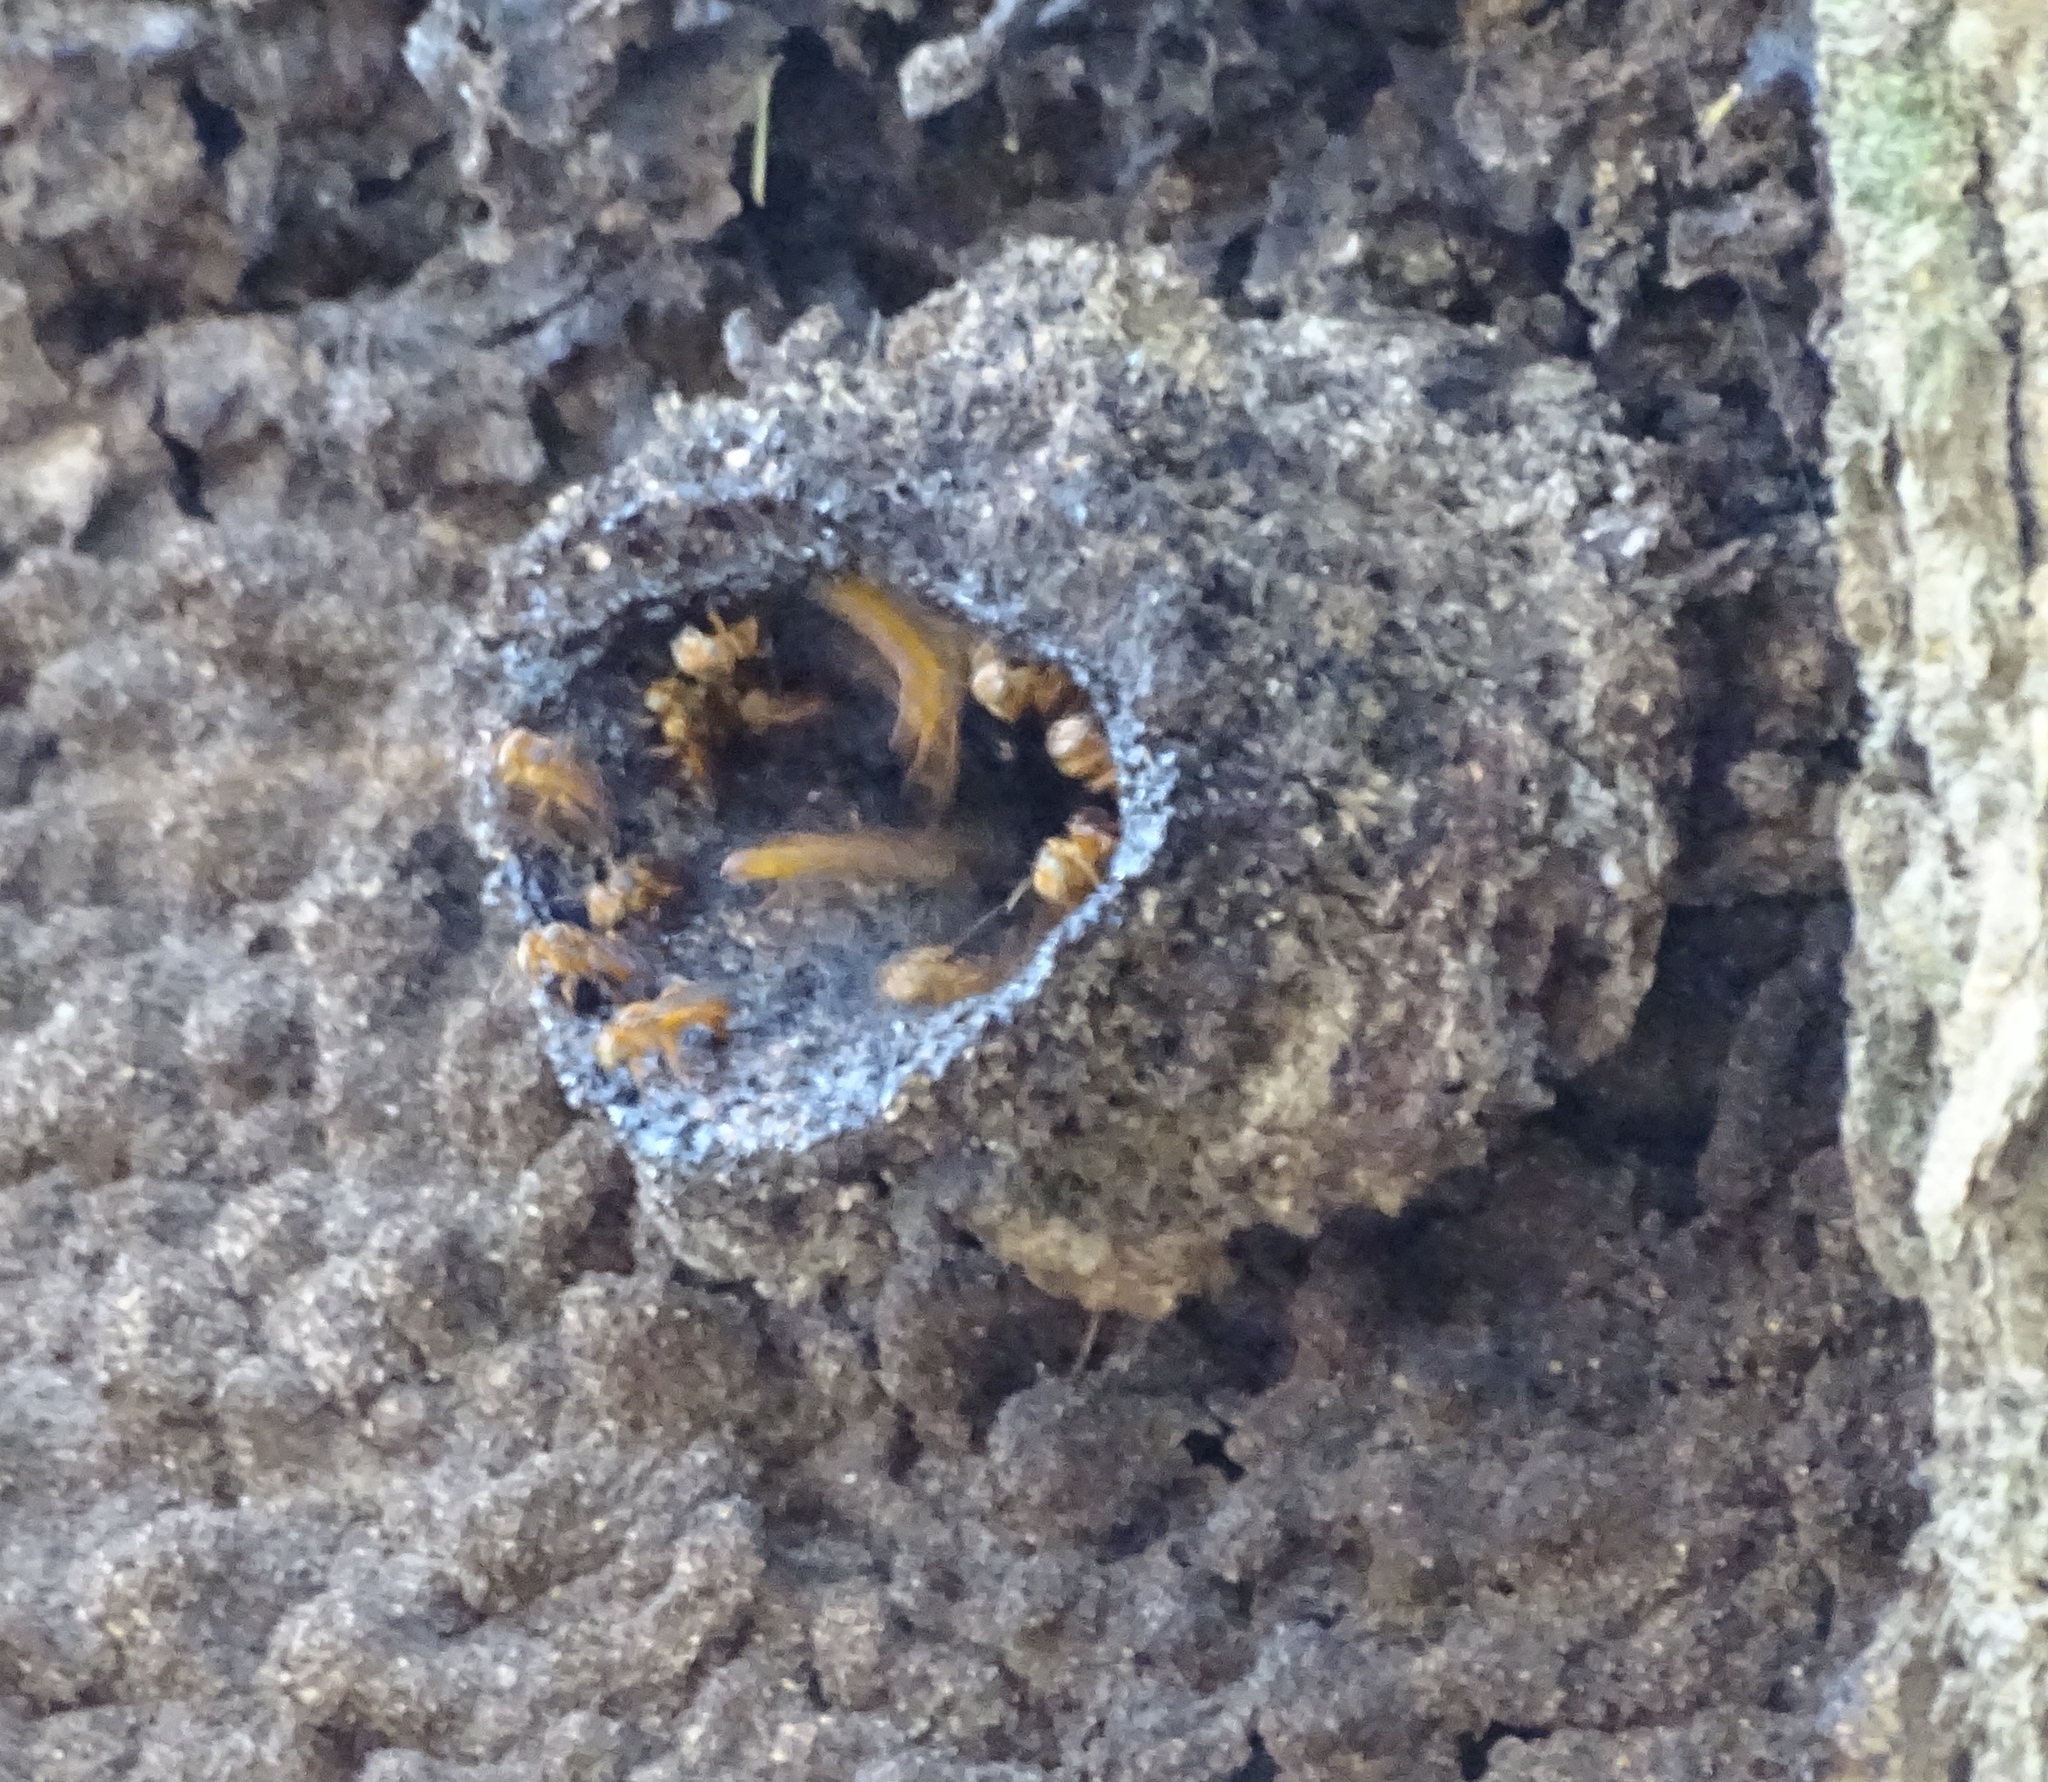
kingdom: Animalia
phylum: Arthropoda
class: Insecta
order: Hymenoptera
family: Apidae
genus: Trigona
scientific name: Trigona chanchamayoensis
